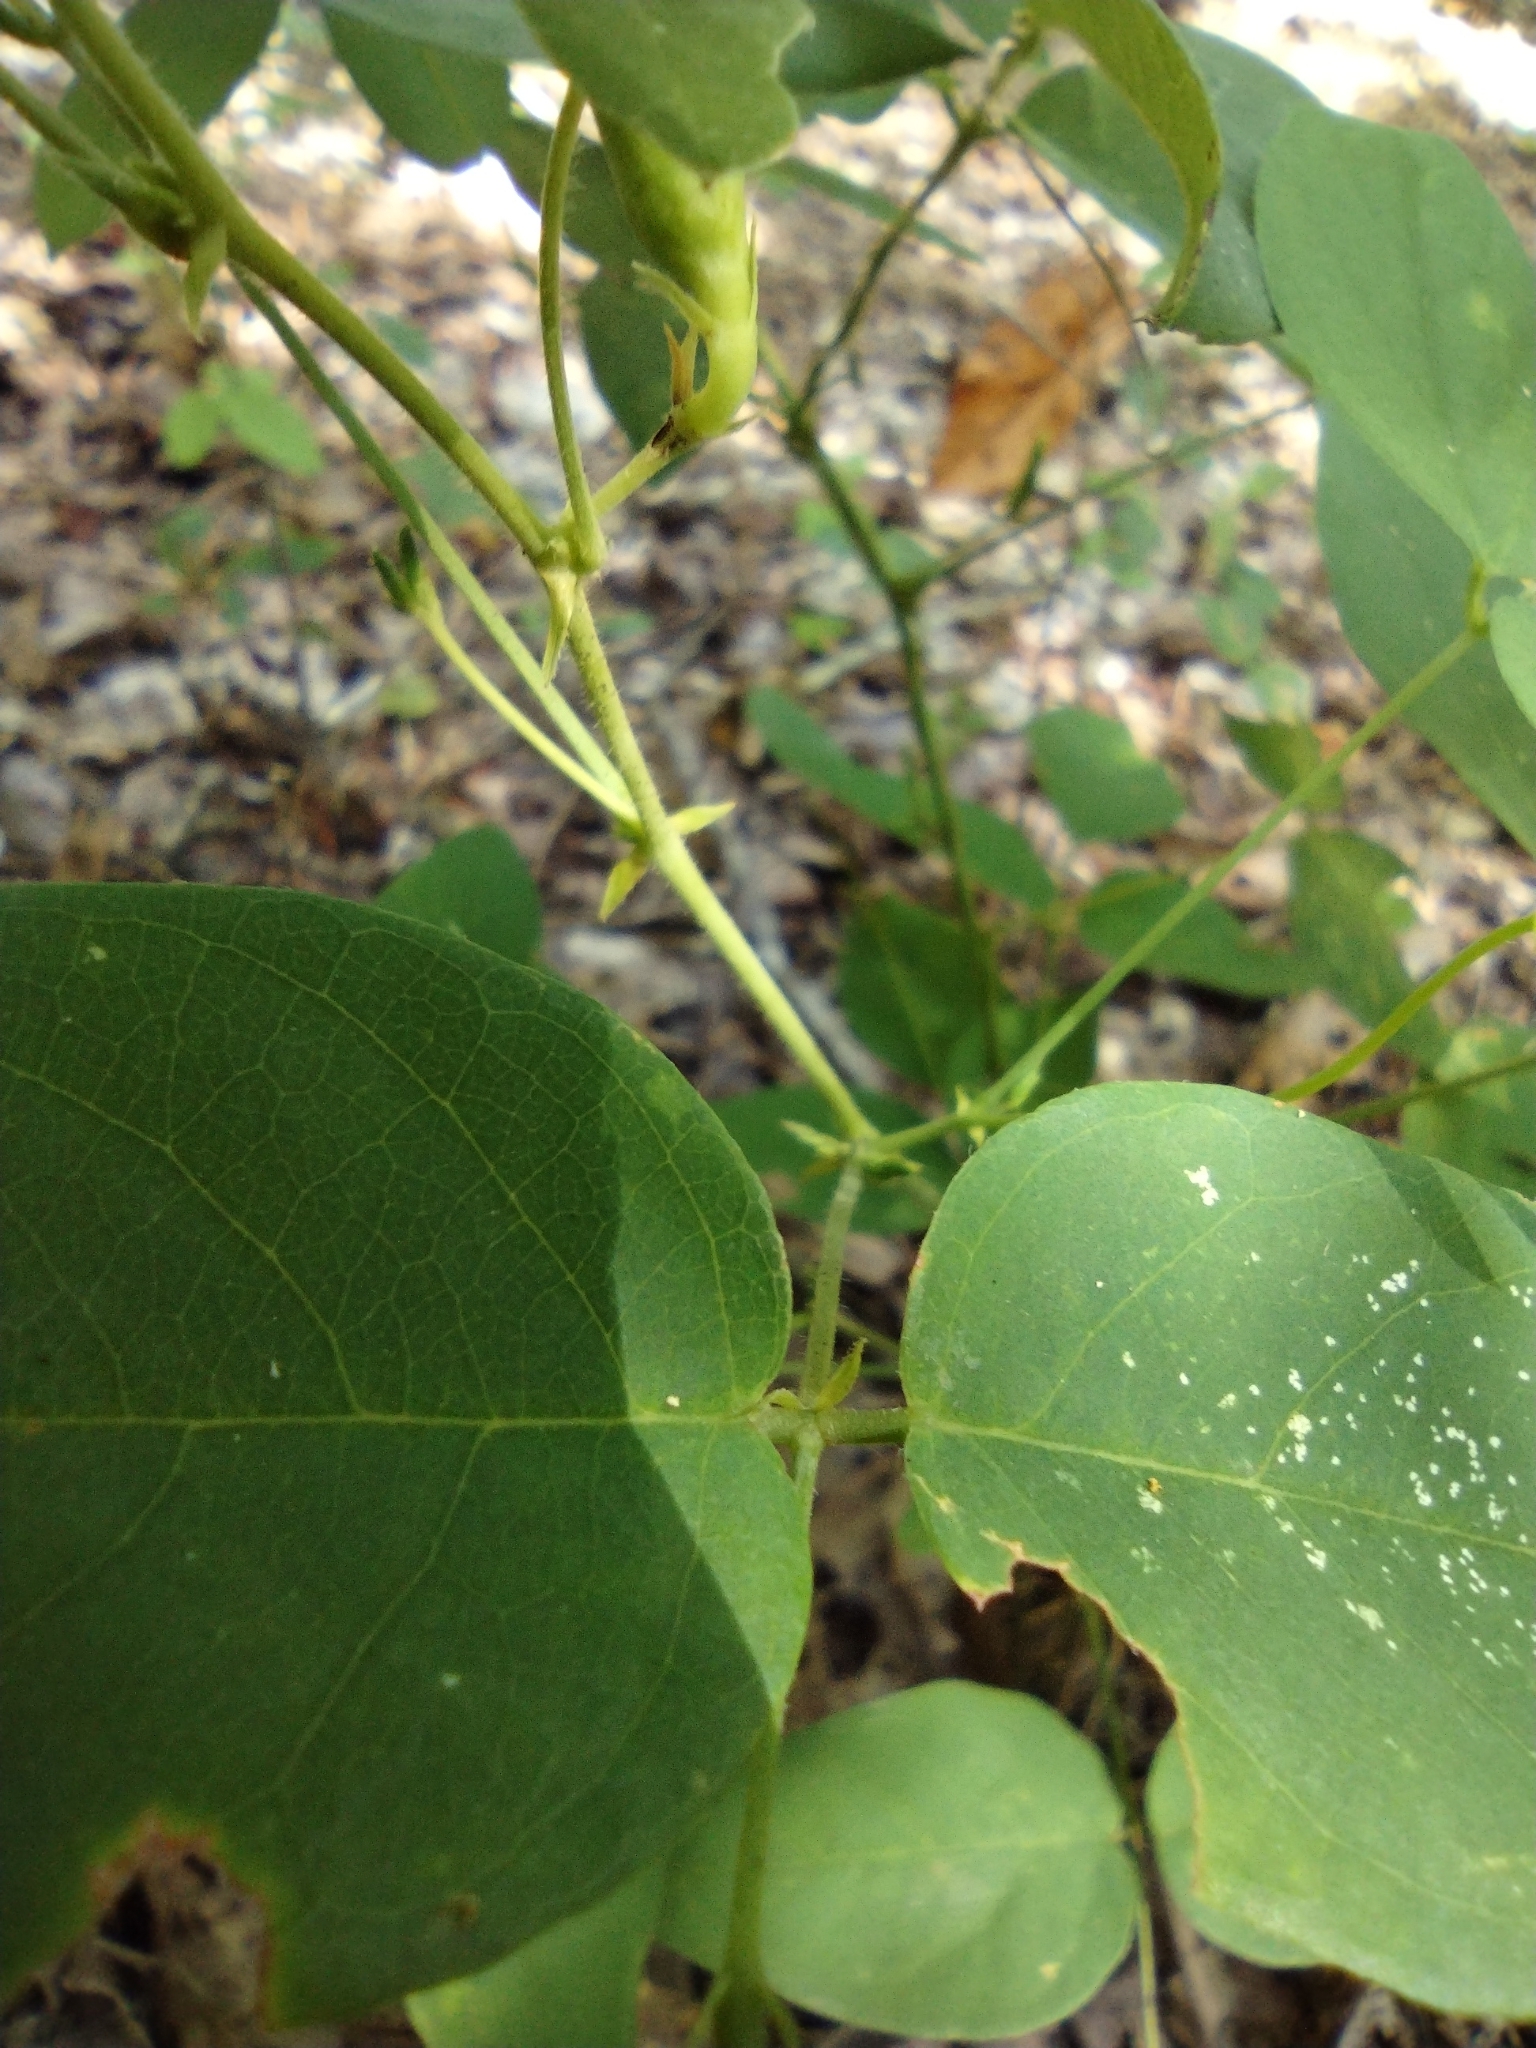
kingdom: Plantae
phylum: Tracheophyta
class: Magnoliopsida
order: Fabales
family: Fabaceae
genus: Clitoria
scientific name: Clitoria mariana
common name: Butterfly-pea
